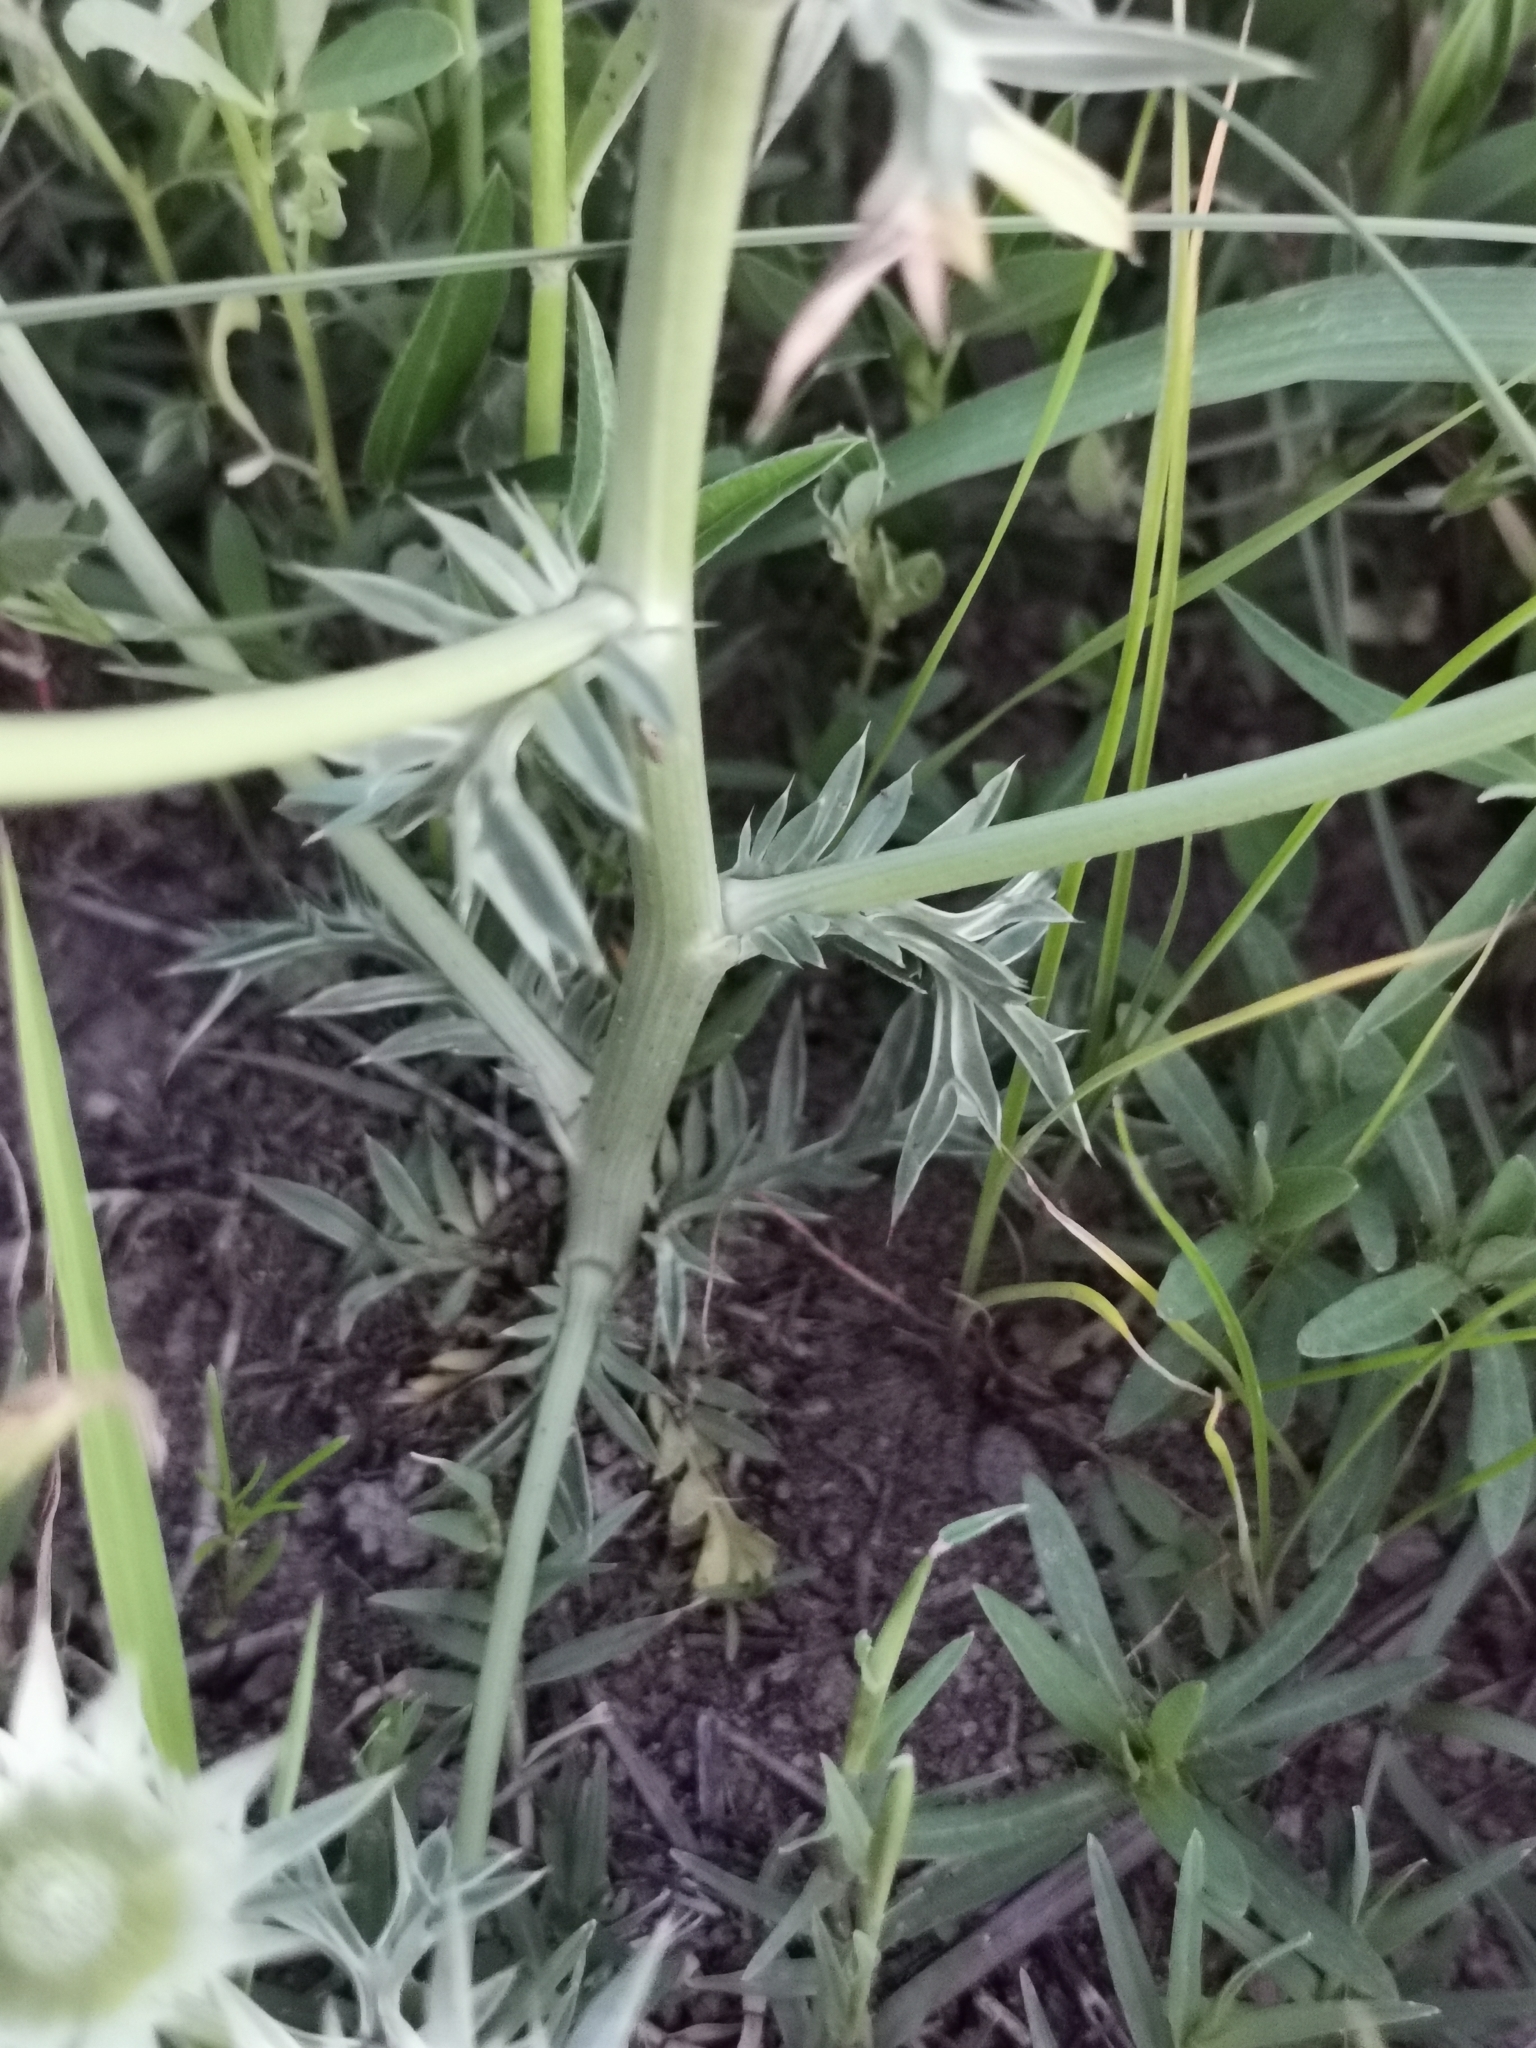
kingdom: Plantae
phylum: Tracheophyta
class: Magnoliopsida
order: Apiales
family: Apiaceae
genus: Eryngium
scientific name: Eryngium heterophyllum
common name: Mexican thistle
